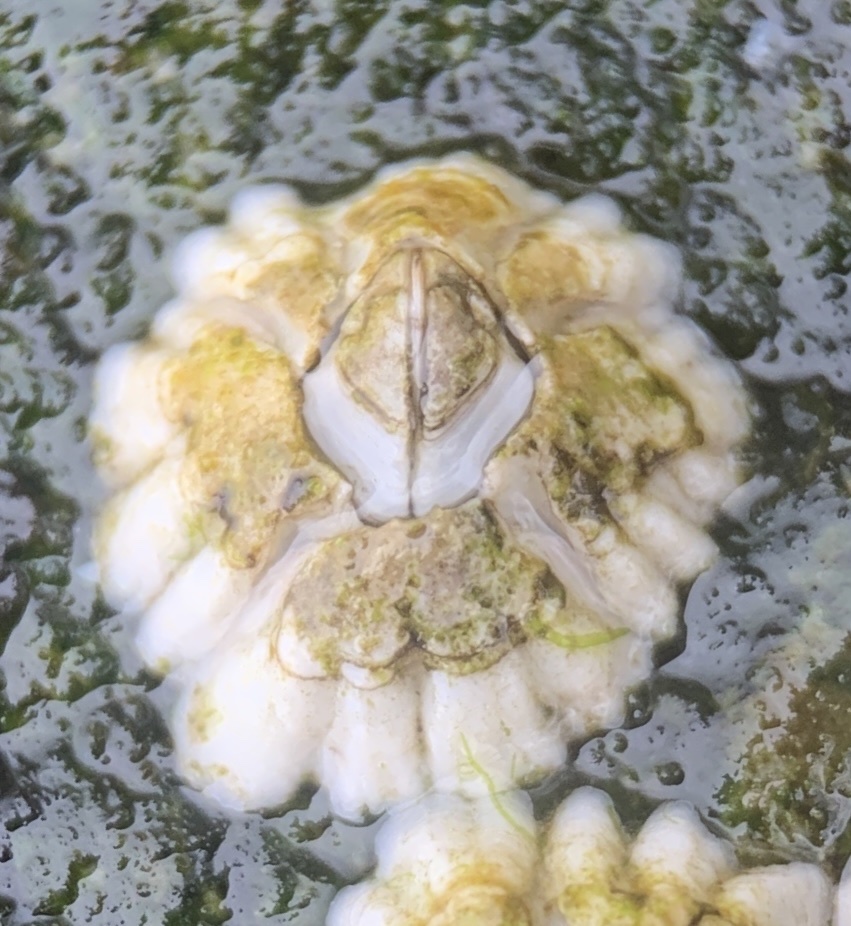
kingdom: Animalia
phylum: Arthropoda
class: Maxillopoda
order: Sessilia
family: Archaeobalanidae
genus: Semibalanus
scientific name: Semibalanus balanoides
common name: Acorn barnacle
